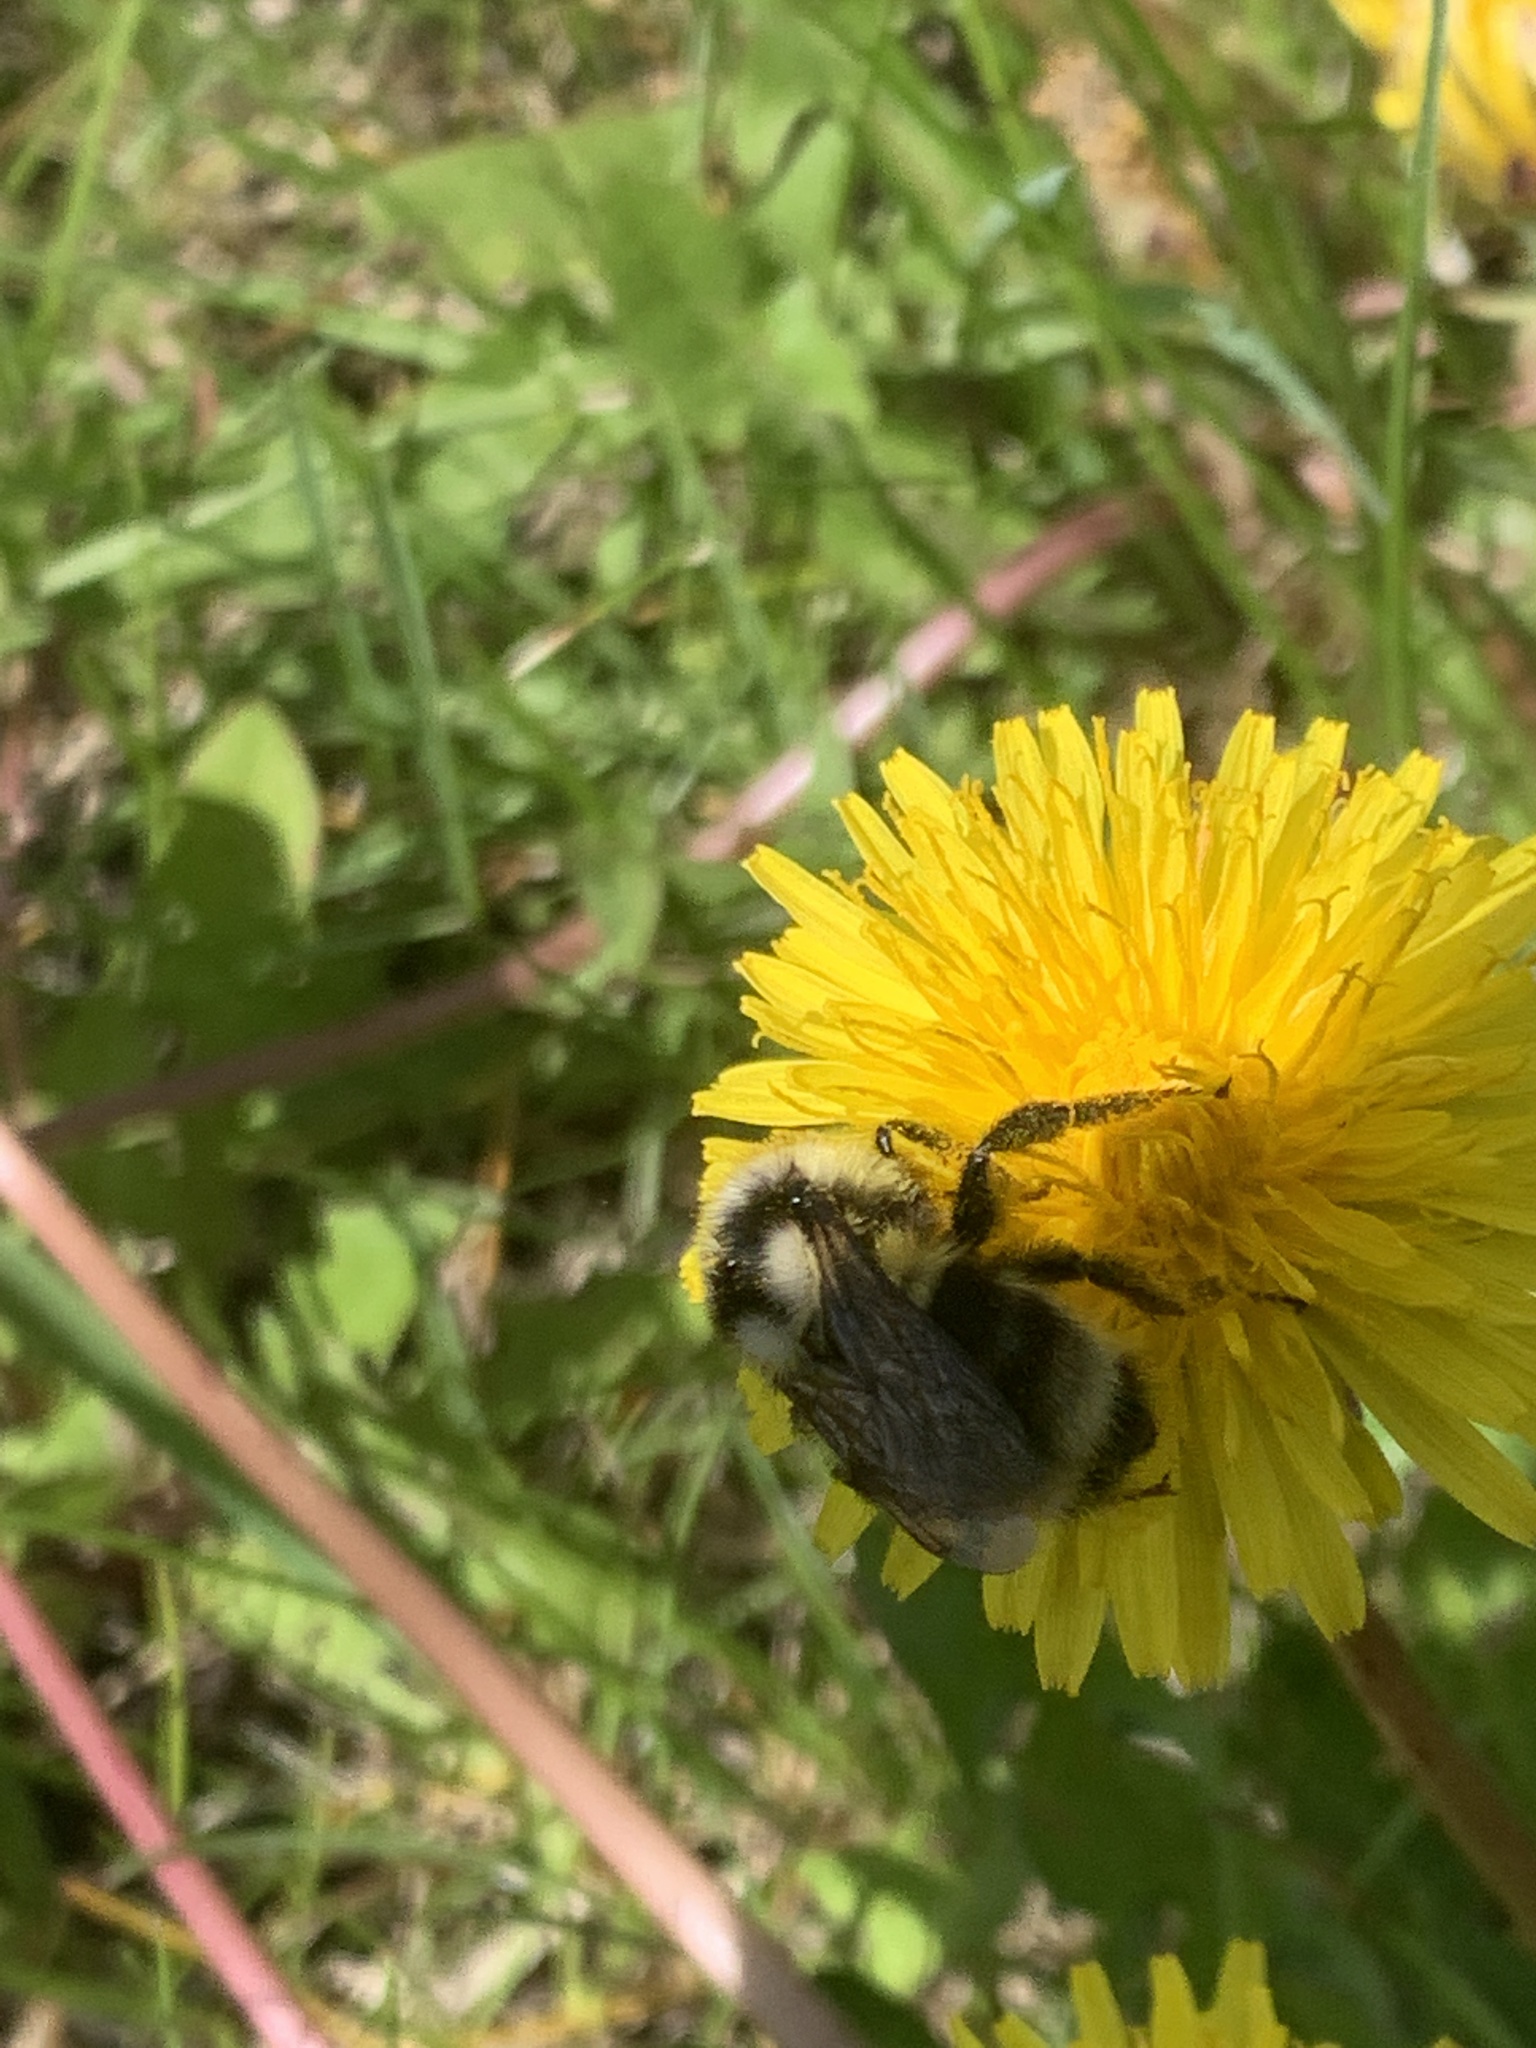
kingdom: Animalia
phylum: Arthropoda
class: Insecta
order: Hymenoptera
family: Apidae
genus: Bombus
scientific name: Bombus vancouverensis
